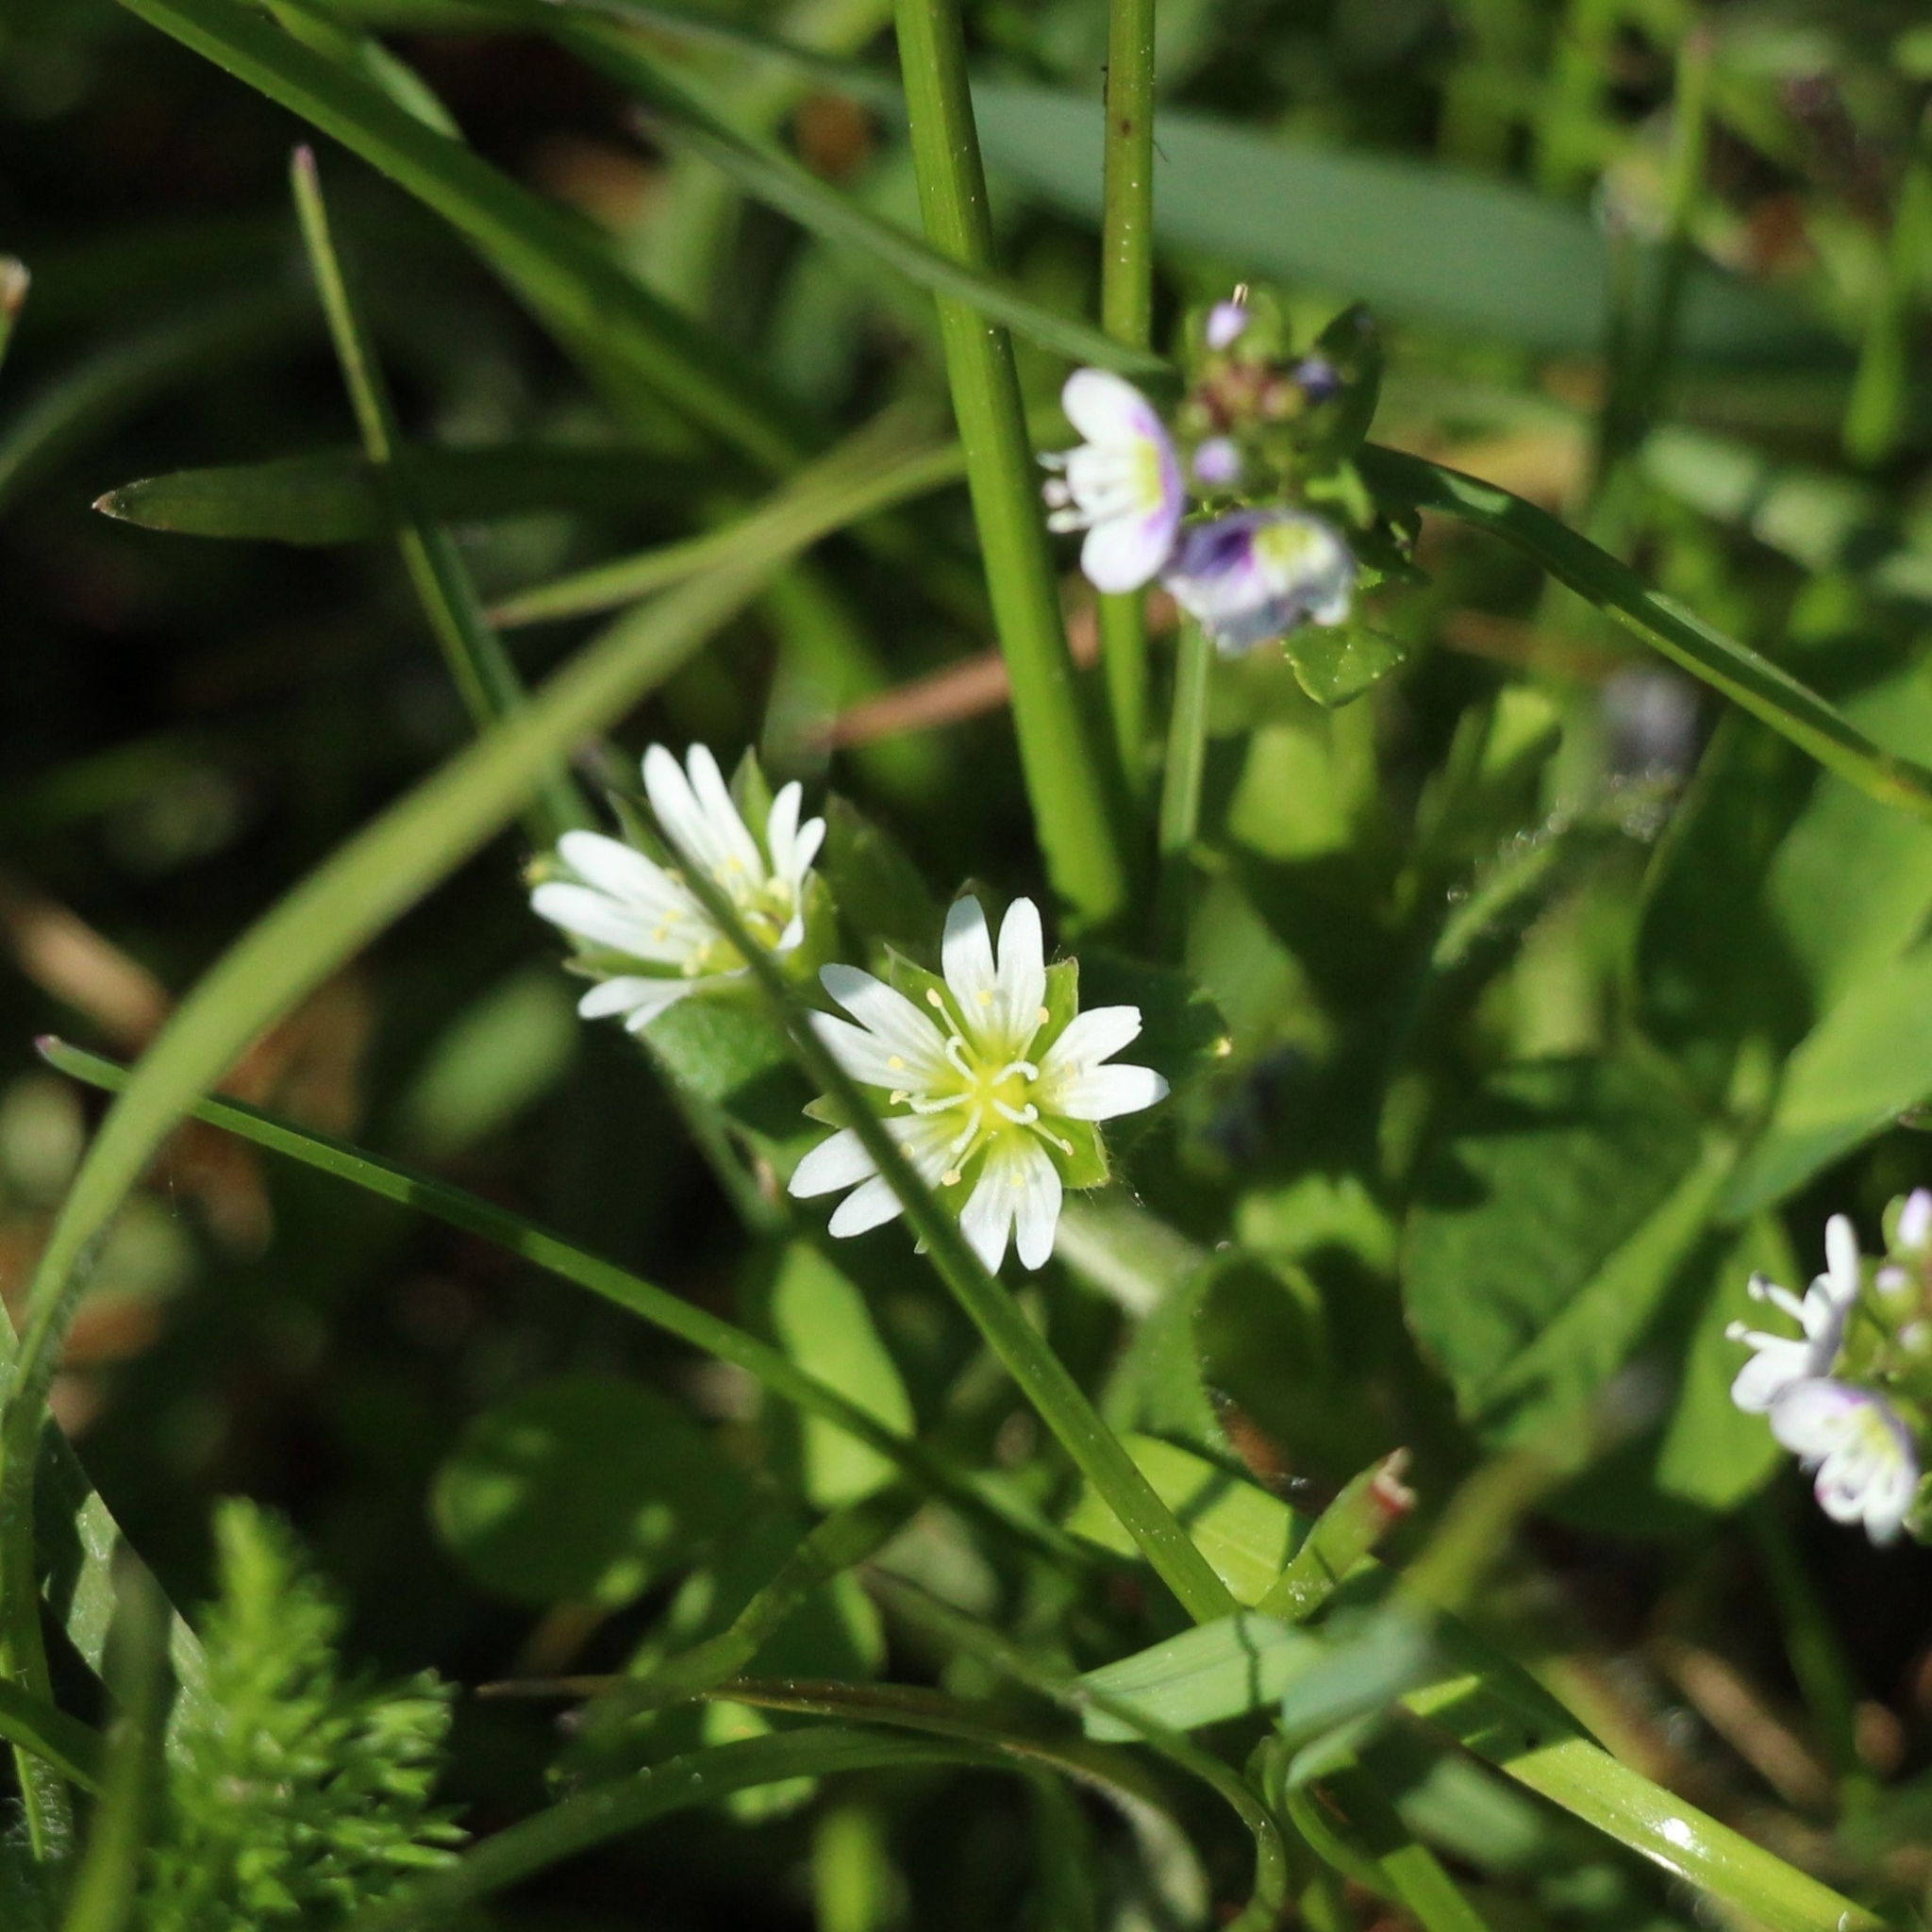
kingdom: Plantae
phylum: Tracheophyta
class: Magnoliopsida
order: Caryophyllales
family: Caryophyllaceae
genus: Cerastium
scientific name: Cerastium holosteoides
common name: Big chickweed
